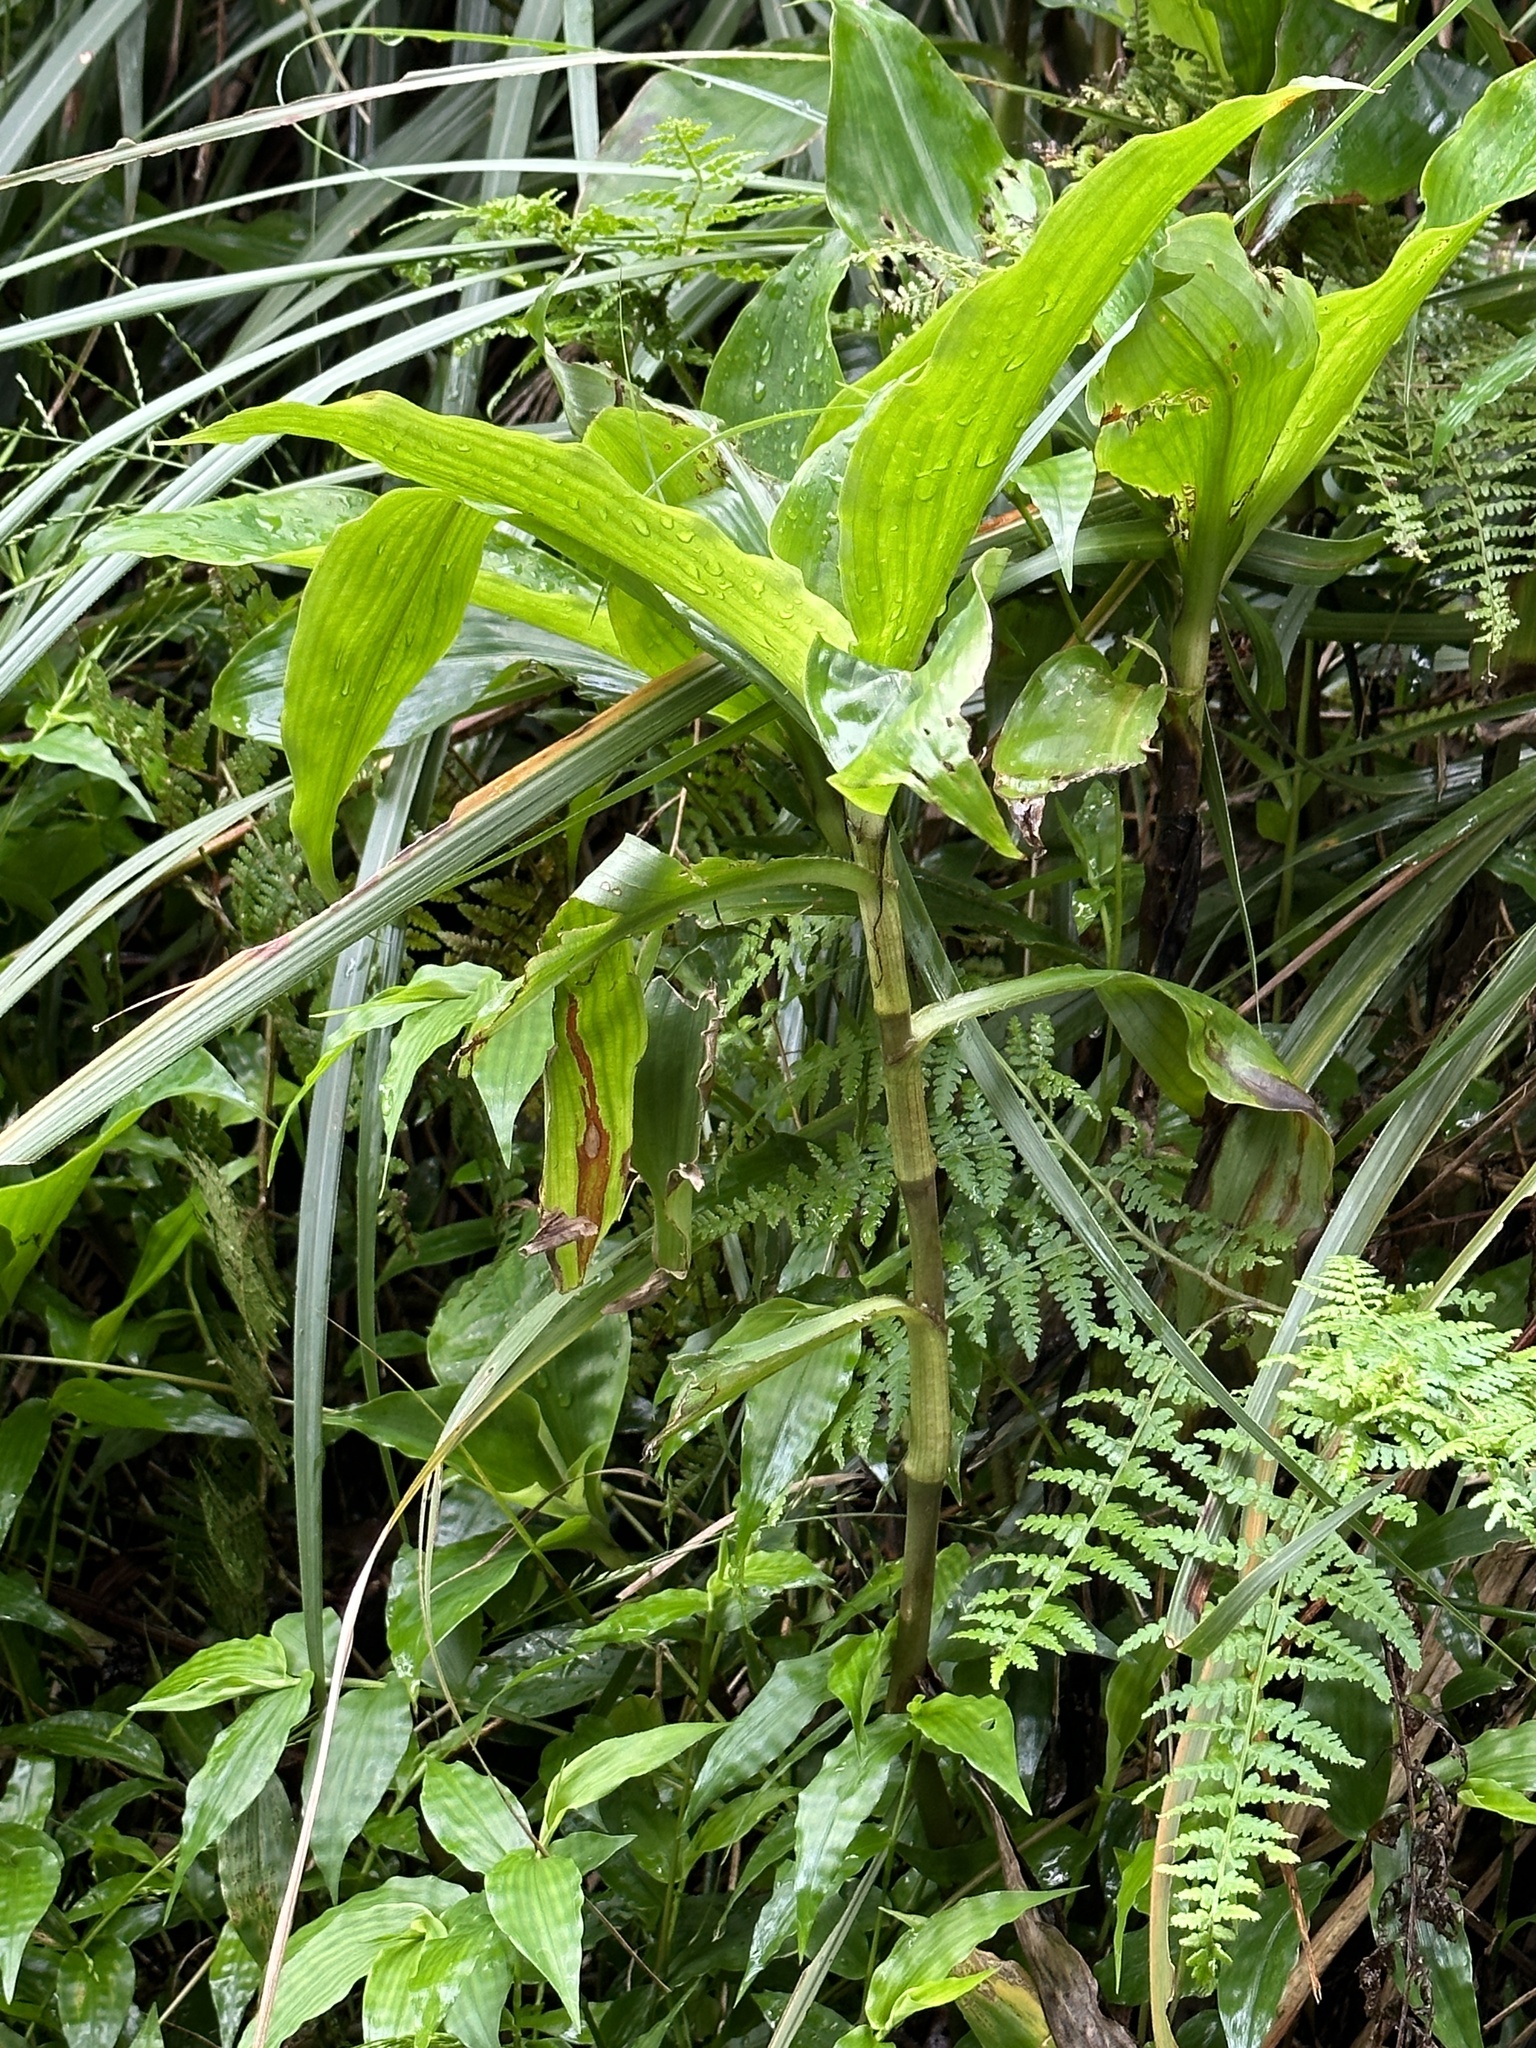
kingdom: Plantae
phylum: Tracheophyta
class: Liliopsida
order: Commelinales
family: Commelinaceae
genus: Amischotolype
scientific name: Amischotolype glabrata
